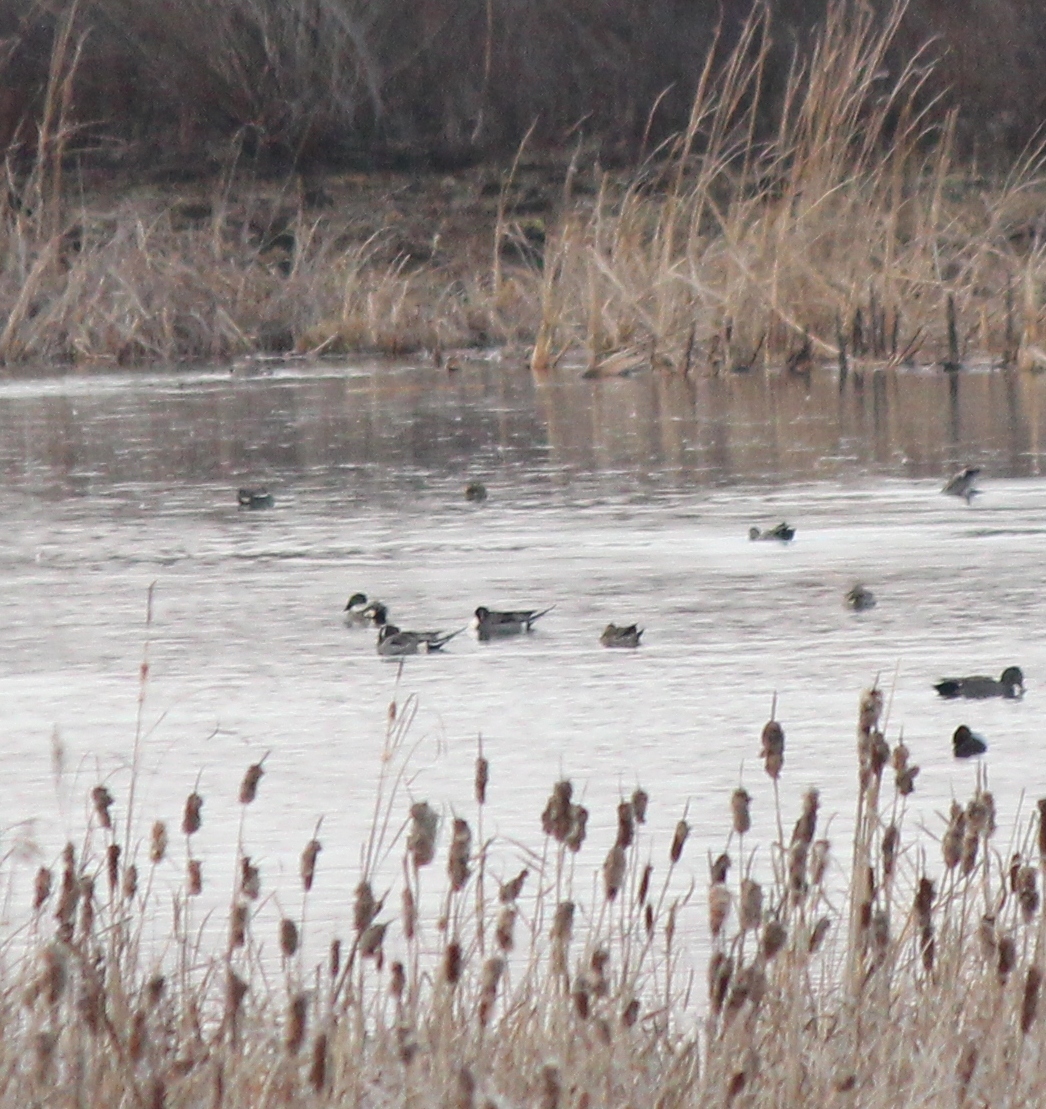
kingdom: Animalia
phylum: Chordata
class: Aves
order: Anseriformes
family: Anatidae
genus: Anas
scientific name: Anas acuta
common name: Northern pintail
